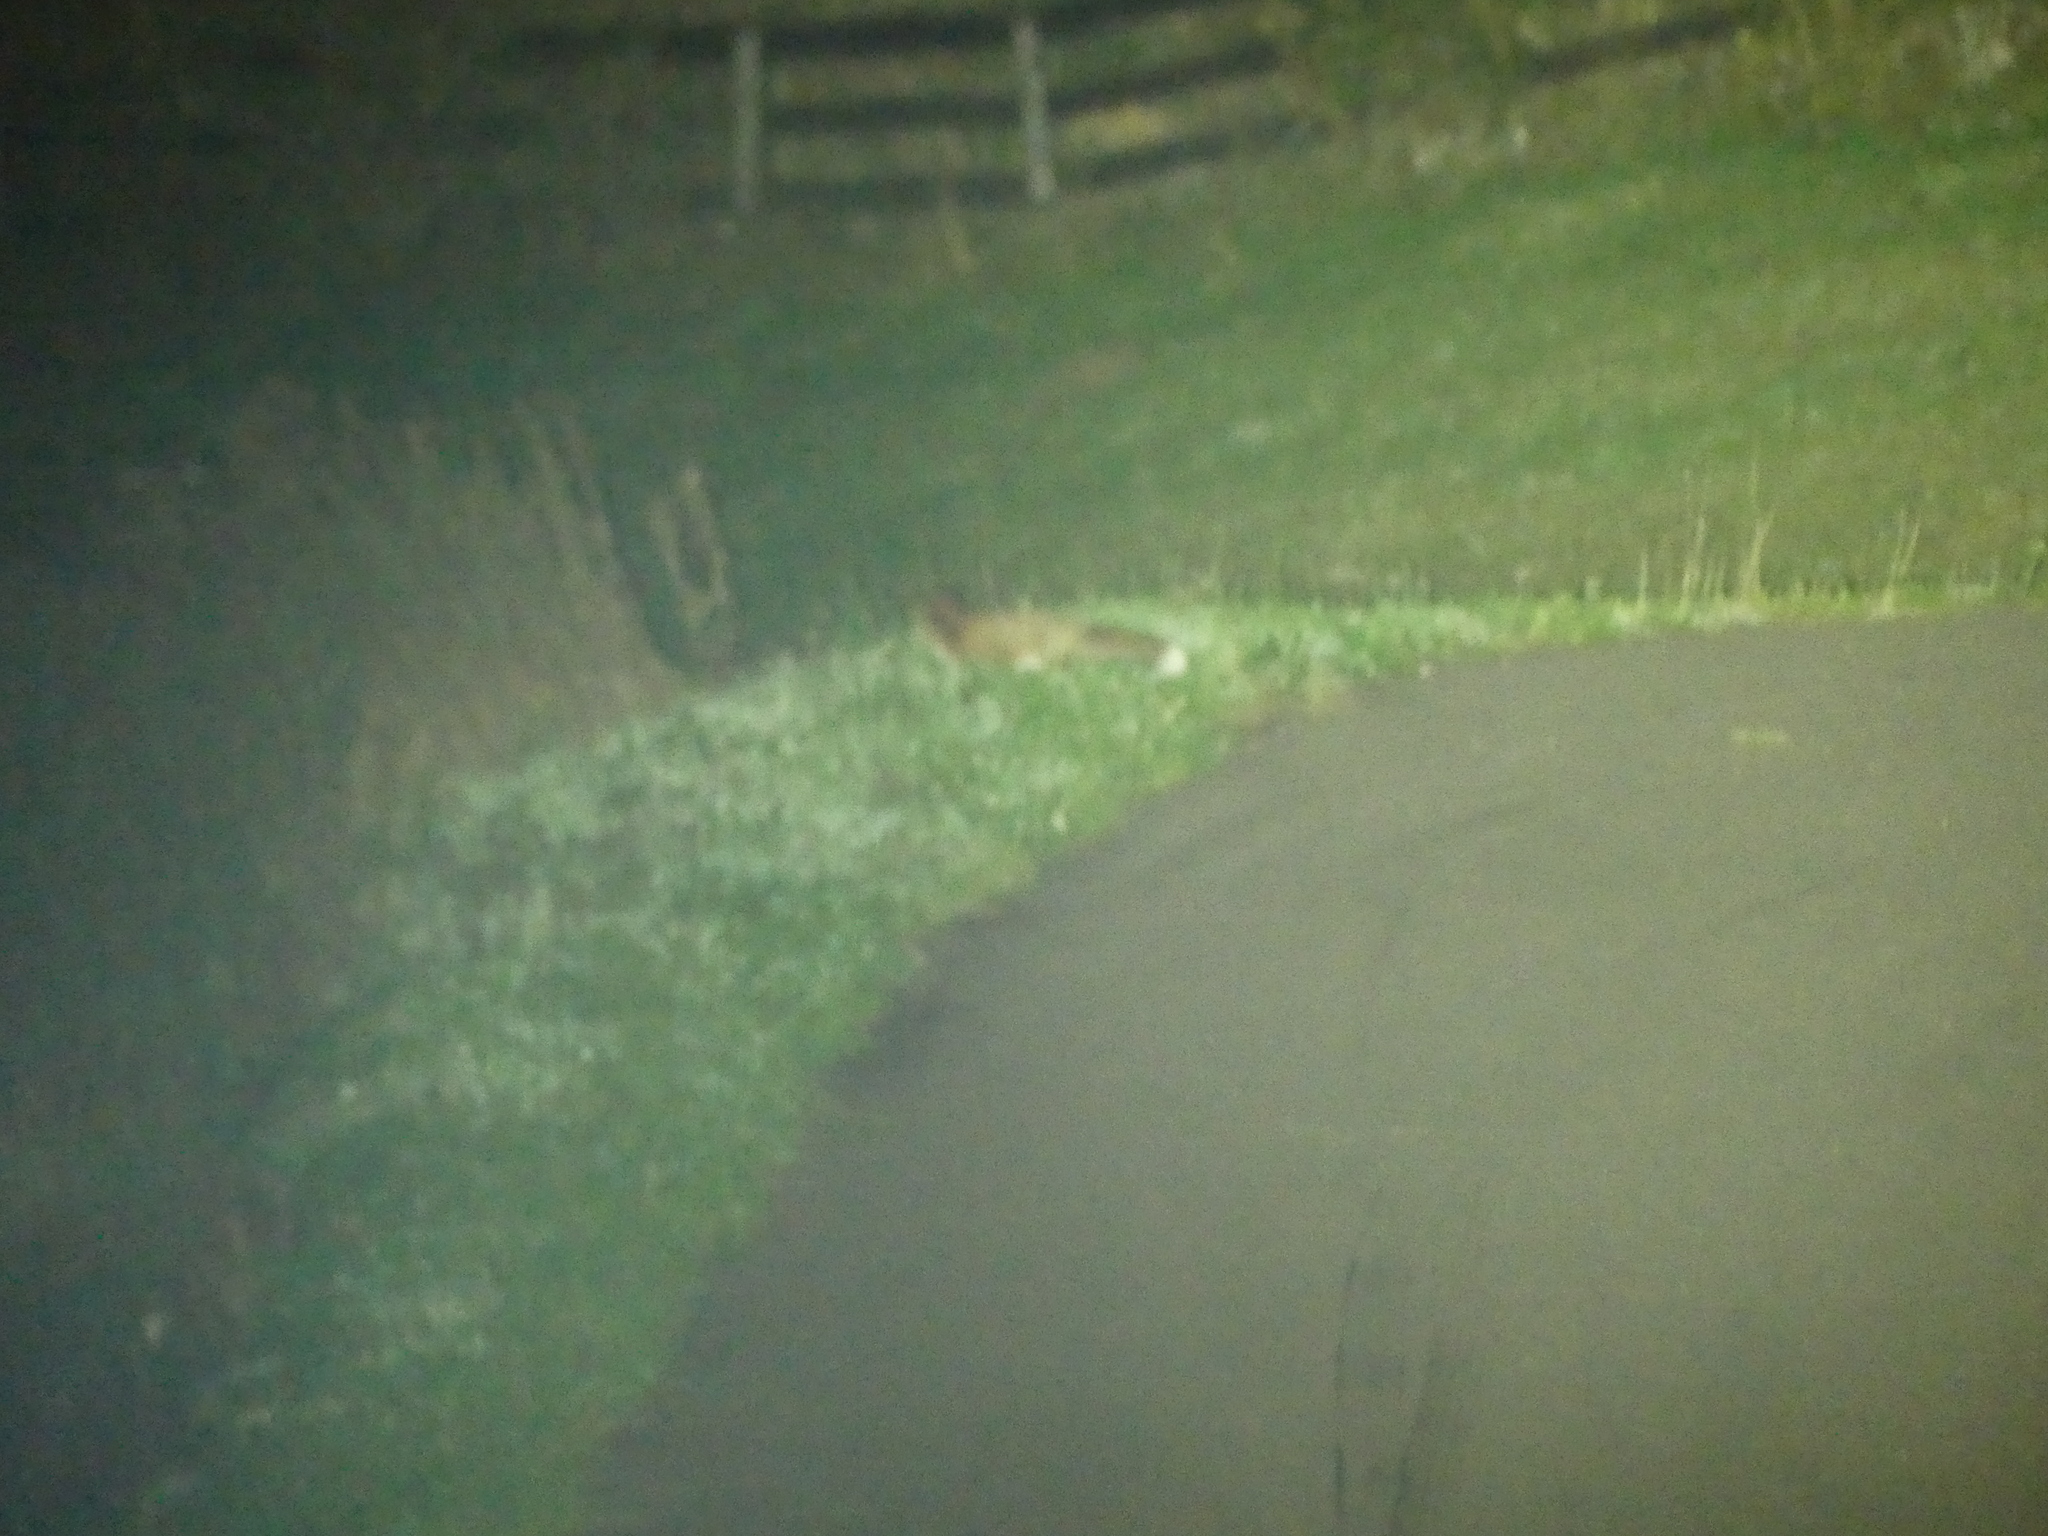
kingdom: Animalia
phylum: Chordata
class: Mammalia
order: Carnivora
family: Canidae
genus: Vulpes
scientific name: Vulpes vulpes
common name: Red fox
